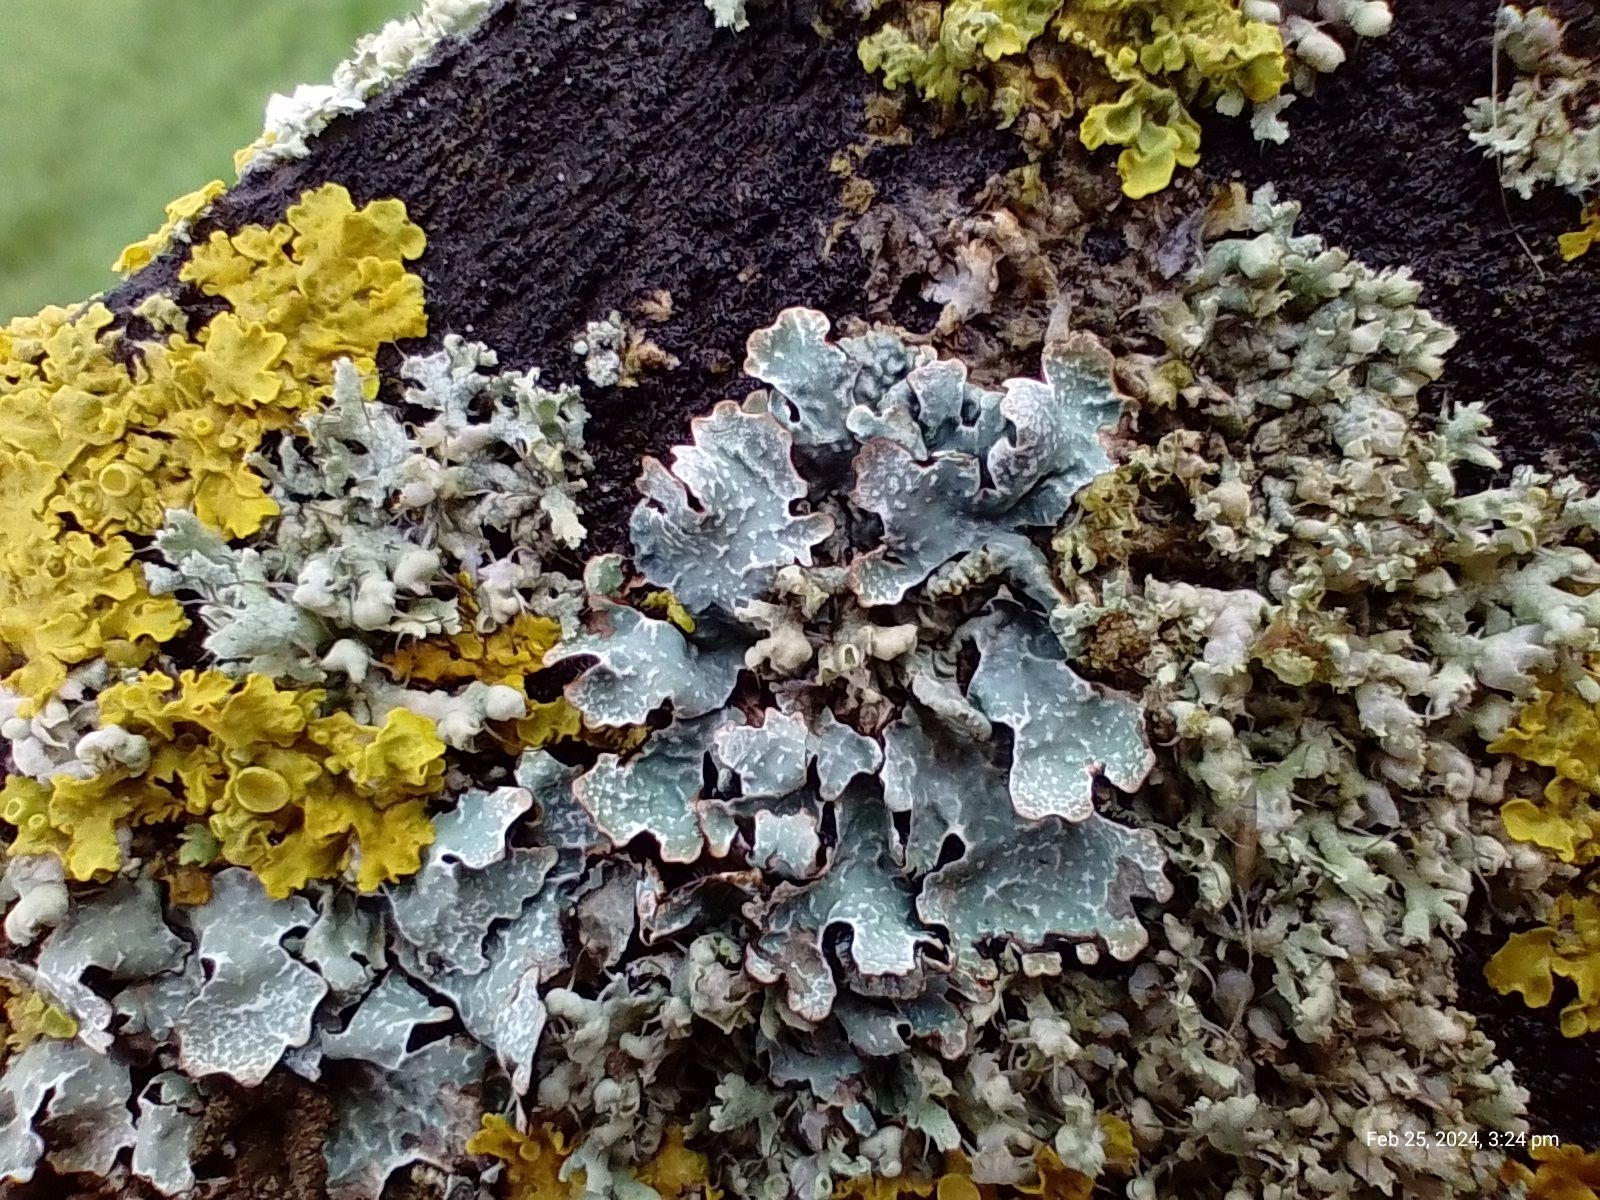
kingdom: Fungi
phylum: Ascomycota
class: Lecanoromycetes
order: Lecanorales
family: Parmeliaceae
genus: Parmelia
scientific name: Parmelia sulcata
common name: Netted shield lichen
